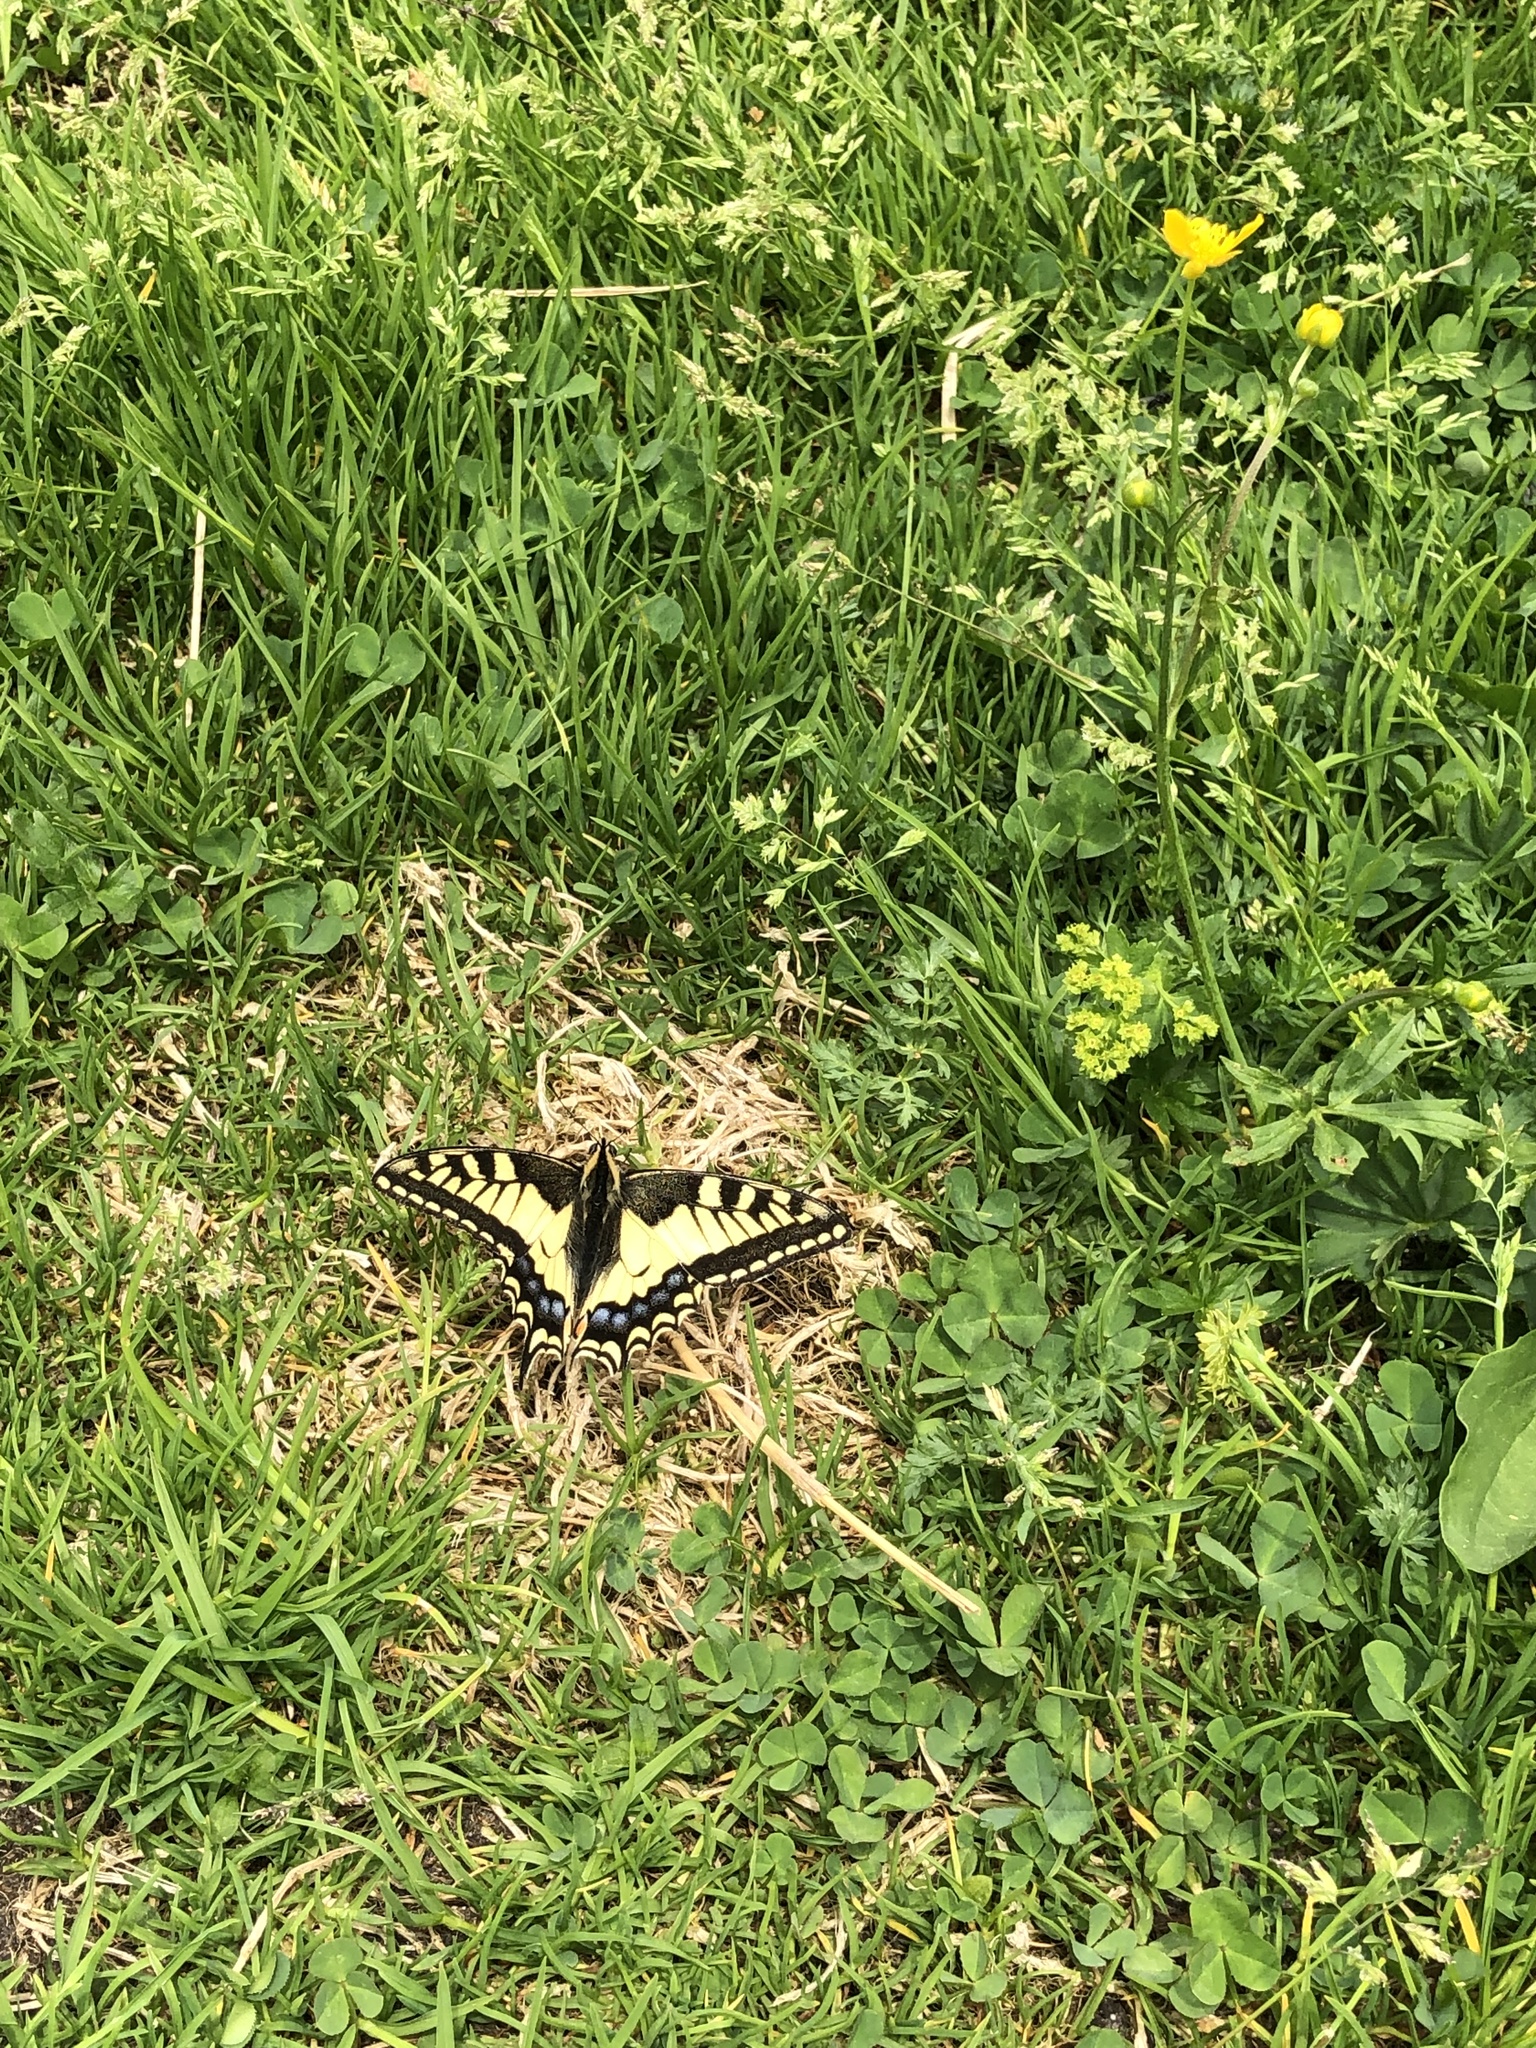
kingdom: Animalia
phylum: Arthropoda
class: Insecta
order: Lepidoptera
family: Papilionidae
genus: Papilio
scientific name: Papilio machaon
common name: Swallowtail
